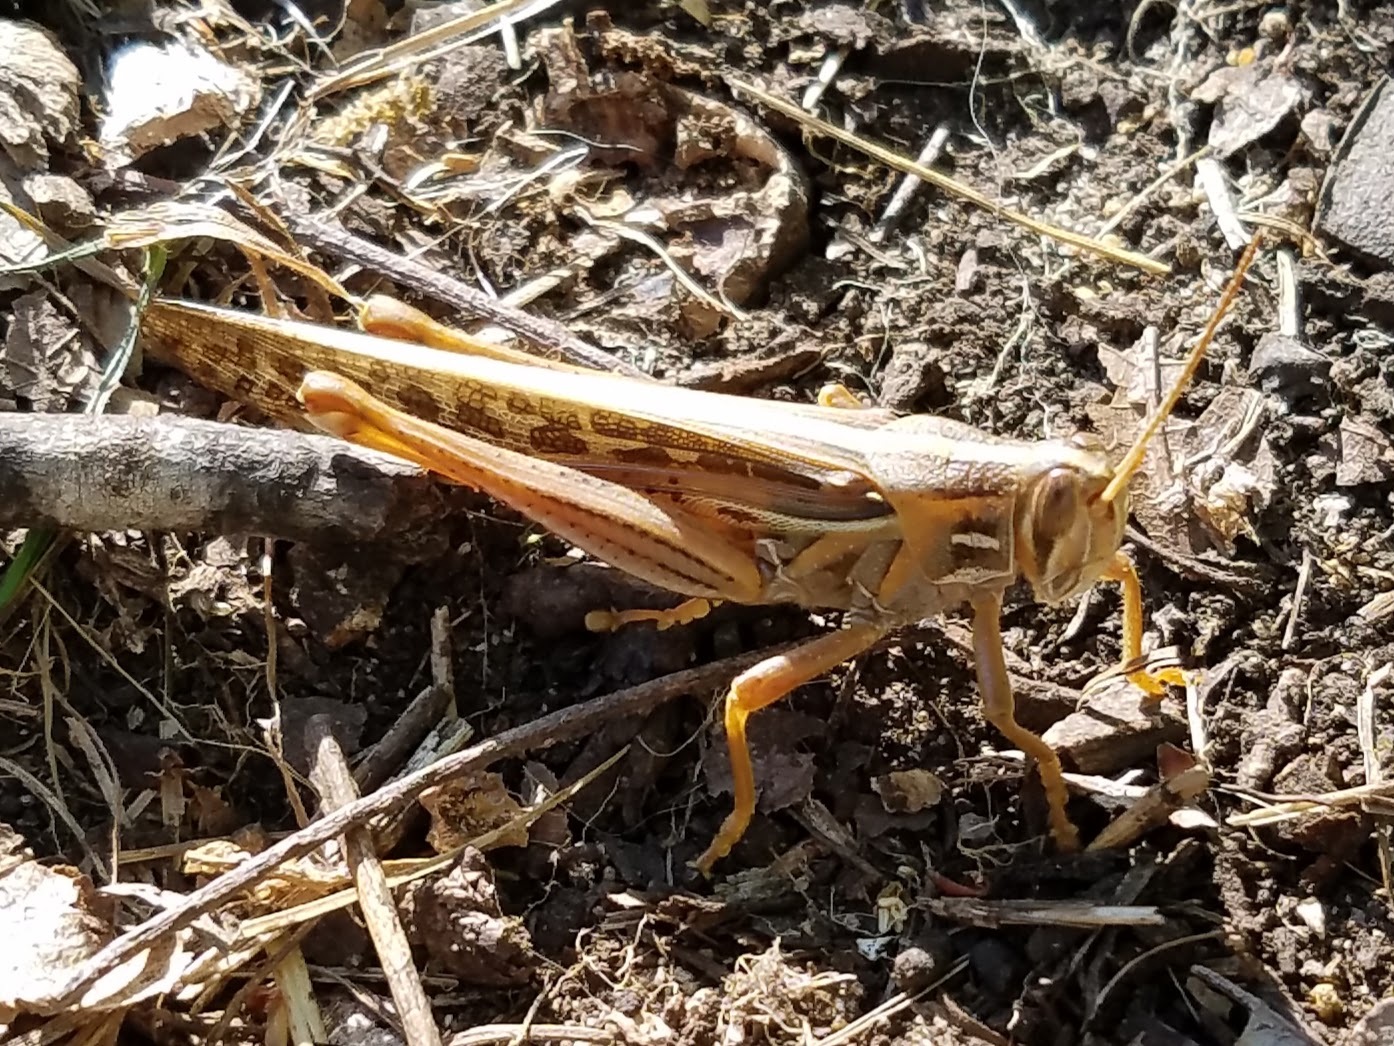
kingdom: Animalia
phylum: Arthropoda
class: Insecta
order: Orthoptera
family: Acrididae
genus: Schistocerca
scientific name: Schistocerca americana
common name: American bird locust
